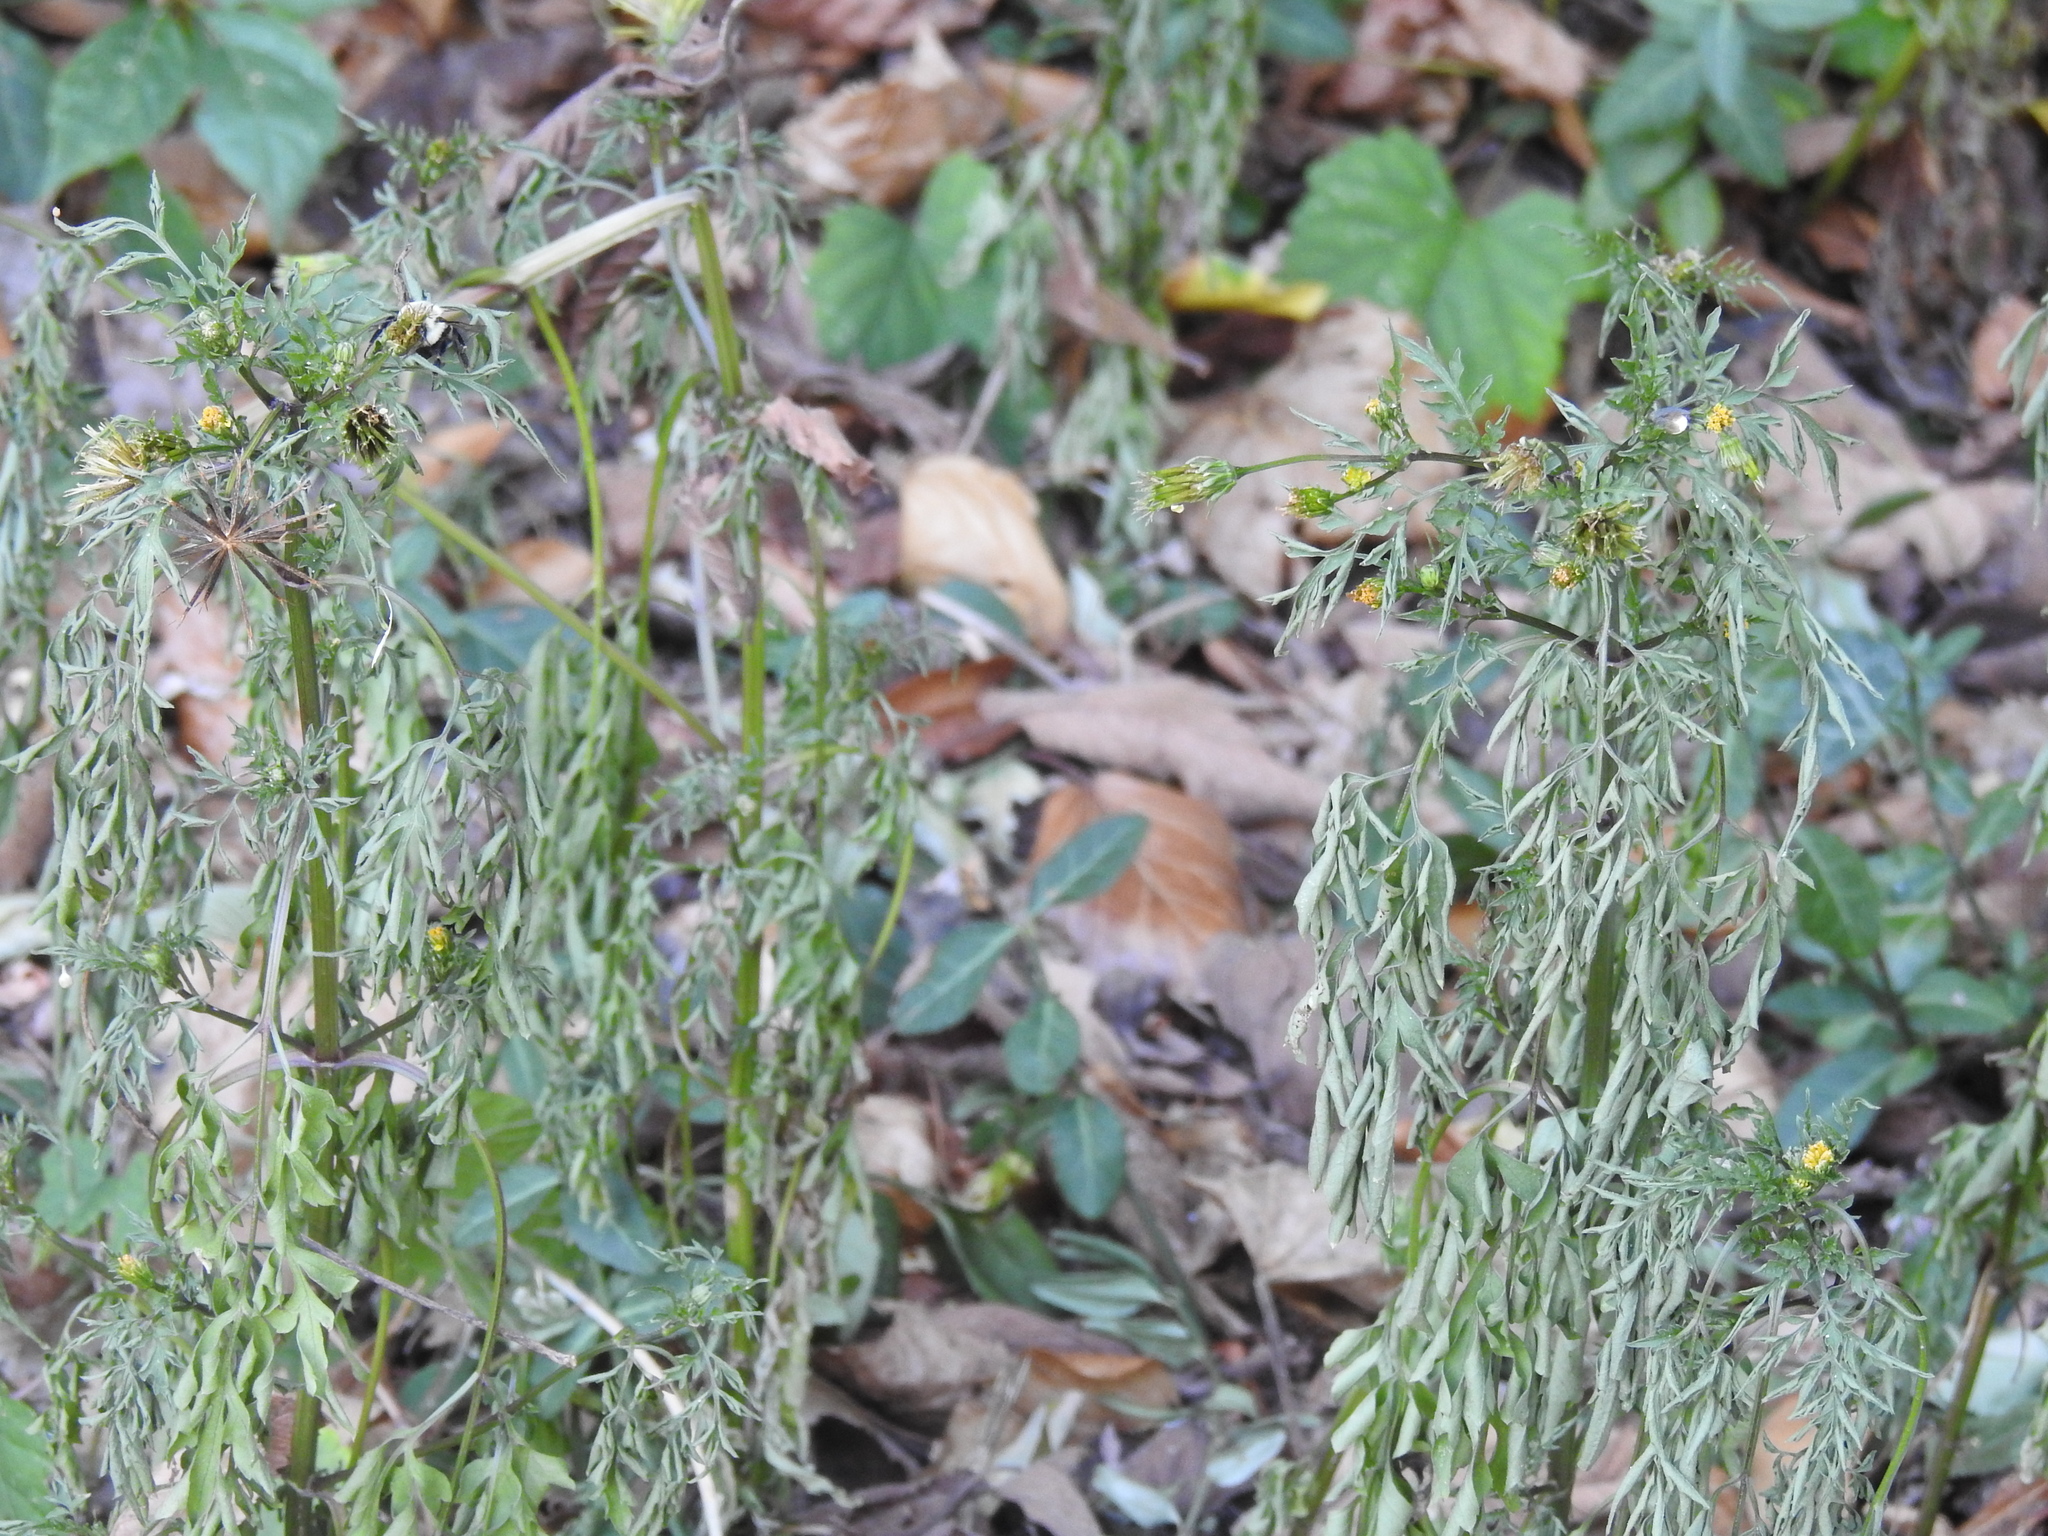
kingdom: Plantae
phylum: Tracheophyta
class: Magnoliopsida
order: Asterales
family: Asteraceae
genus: Bidens
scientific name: Bidens bipinnata
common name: Spanish-needles
